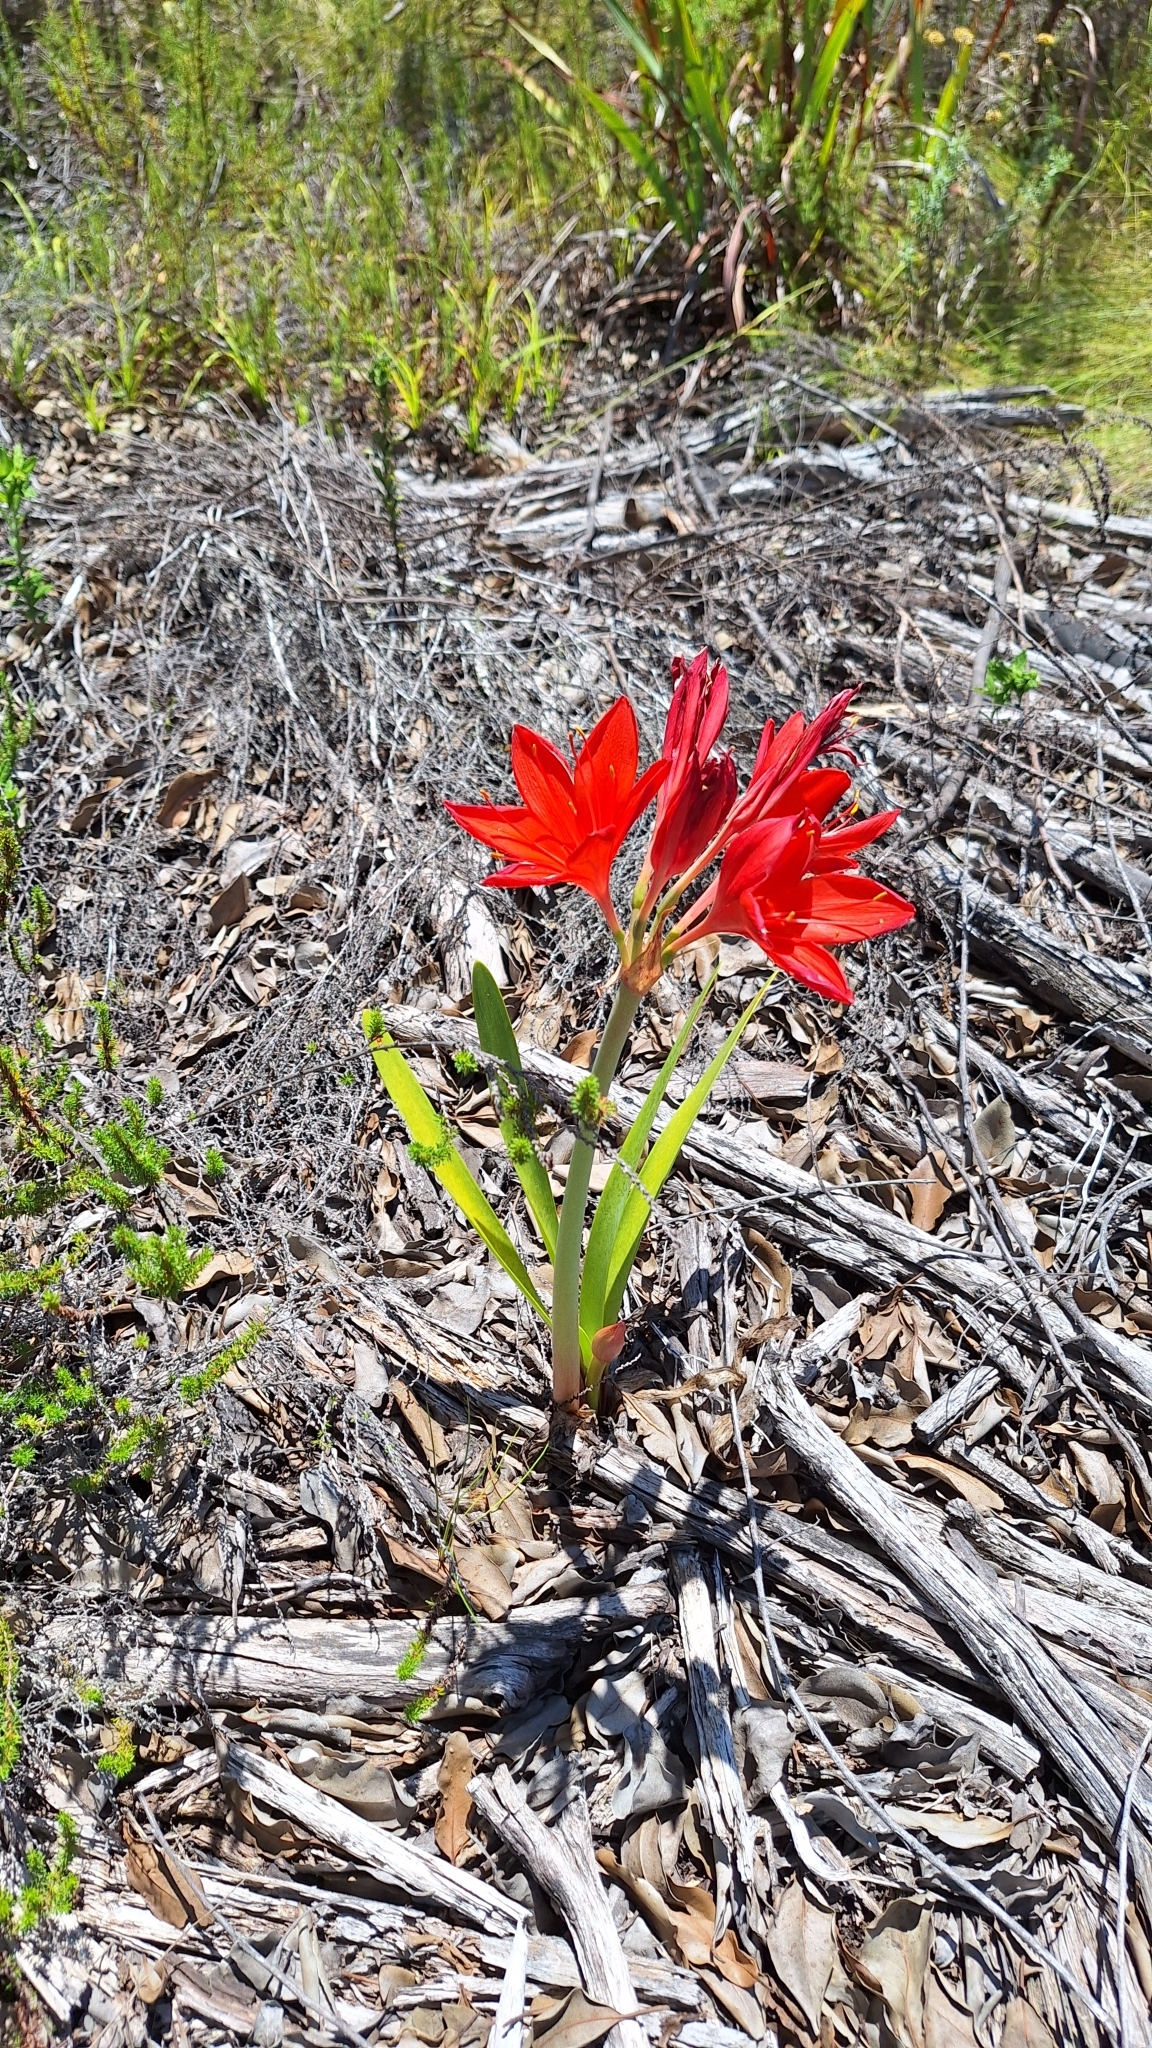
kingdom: Plantae
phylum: Tracheophyta
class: Liliopsida
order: Asparagales
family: Amaryllidaceae
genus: Cyrtanthus
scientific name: Cyrtanthus elatus
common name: Scarborough-lily
